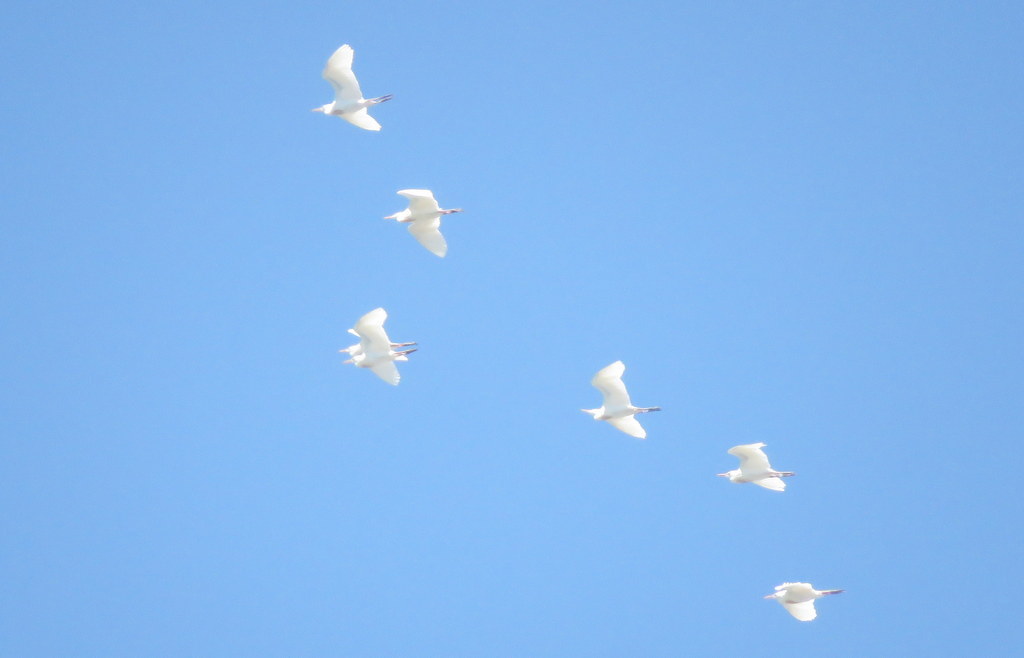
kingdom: Animalia
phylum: Chordata
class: Aves
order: Pelecaniformes
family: Ardeidae
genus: Bubulcus
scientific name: Bubulcus ibis
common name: Cattle egret
